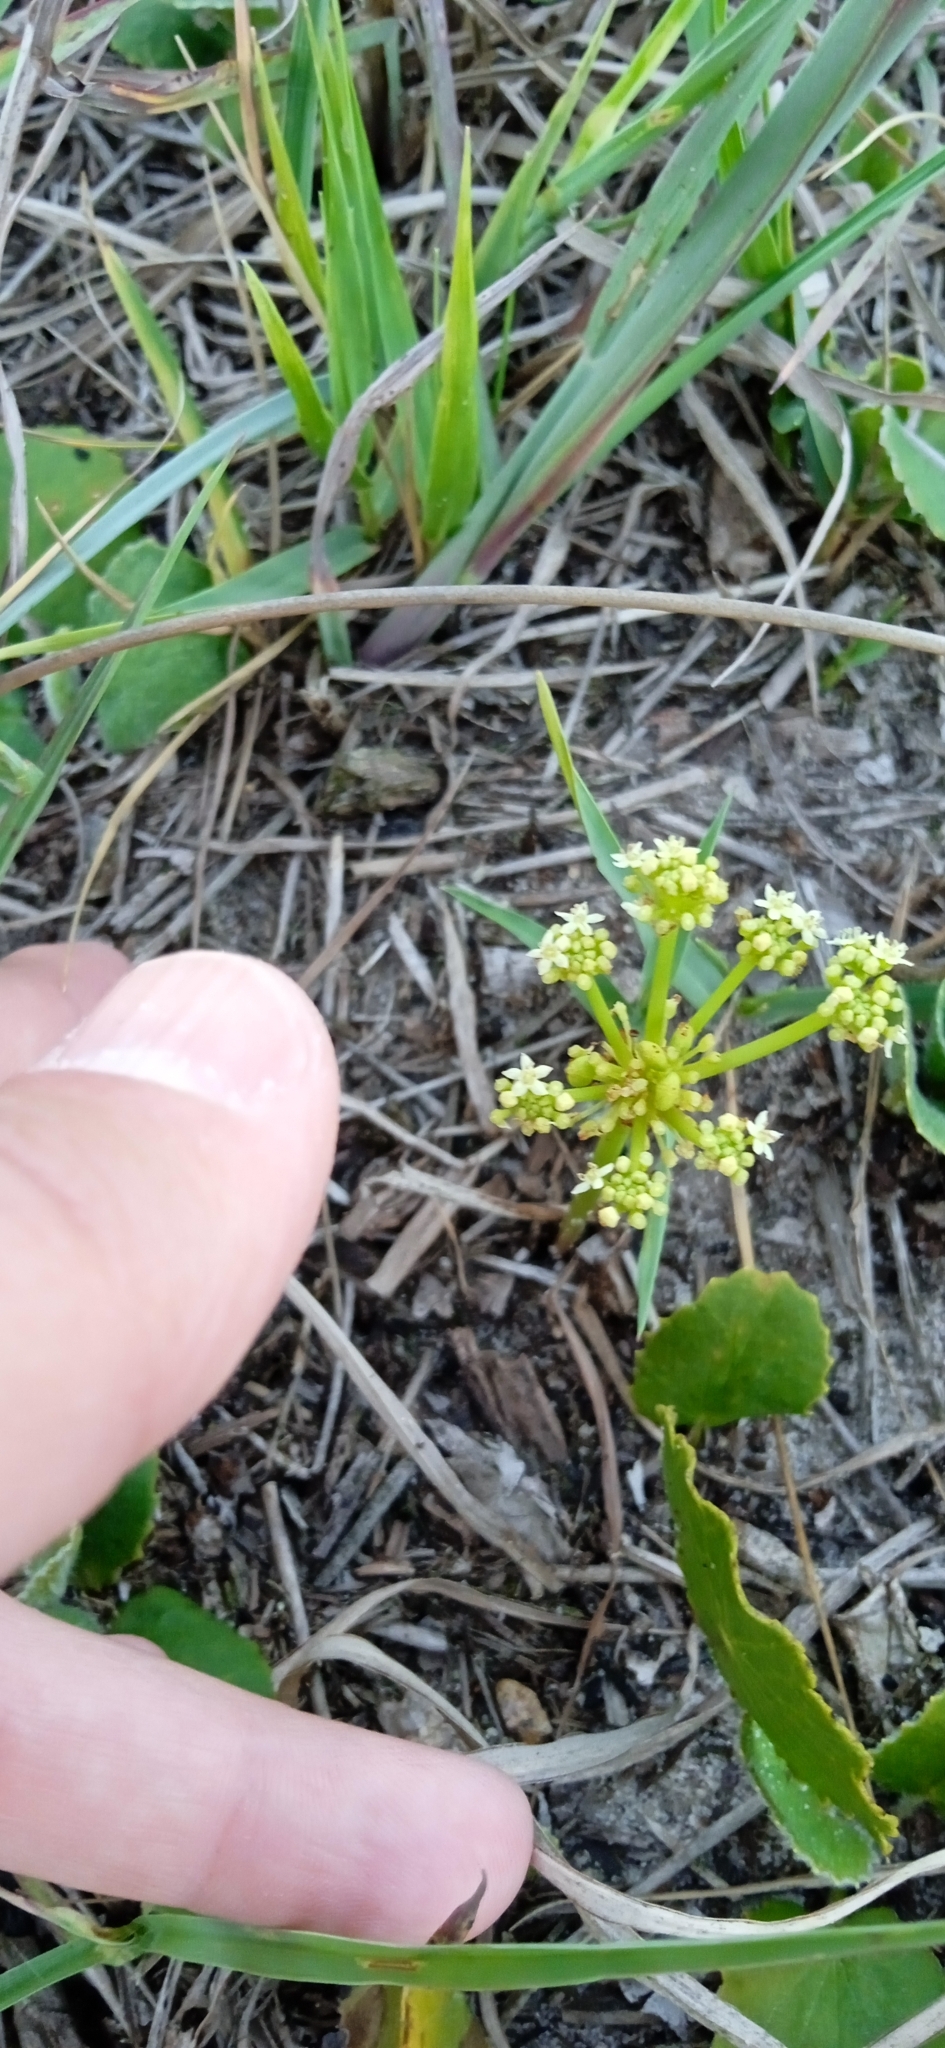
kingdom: Plantae
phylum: Tracheophyta
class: Magnoliopsida
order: Apiales
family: Araliaceae
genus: Hydrocotyle
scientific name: Hydrocotyle bonariensis
